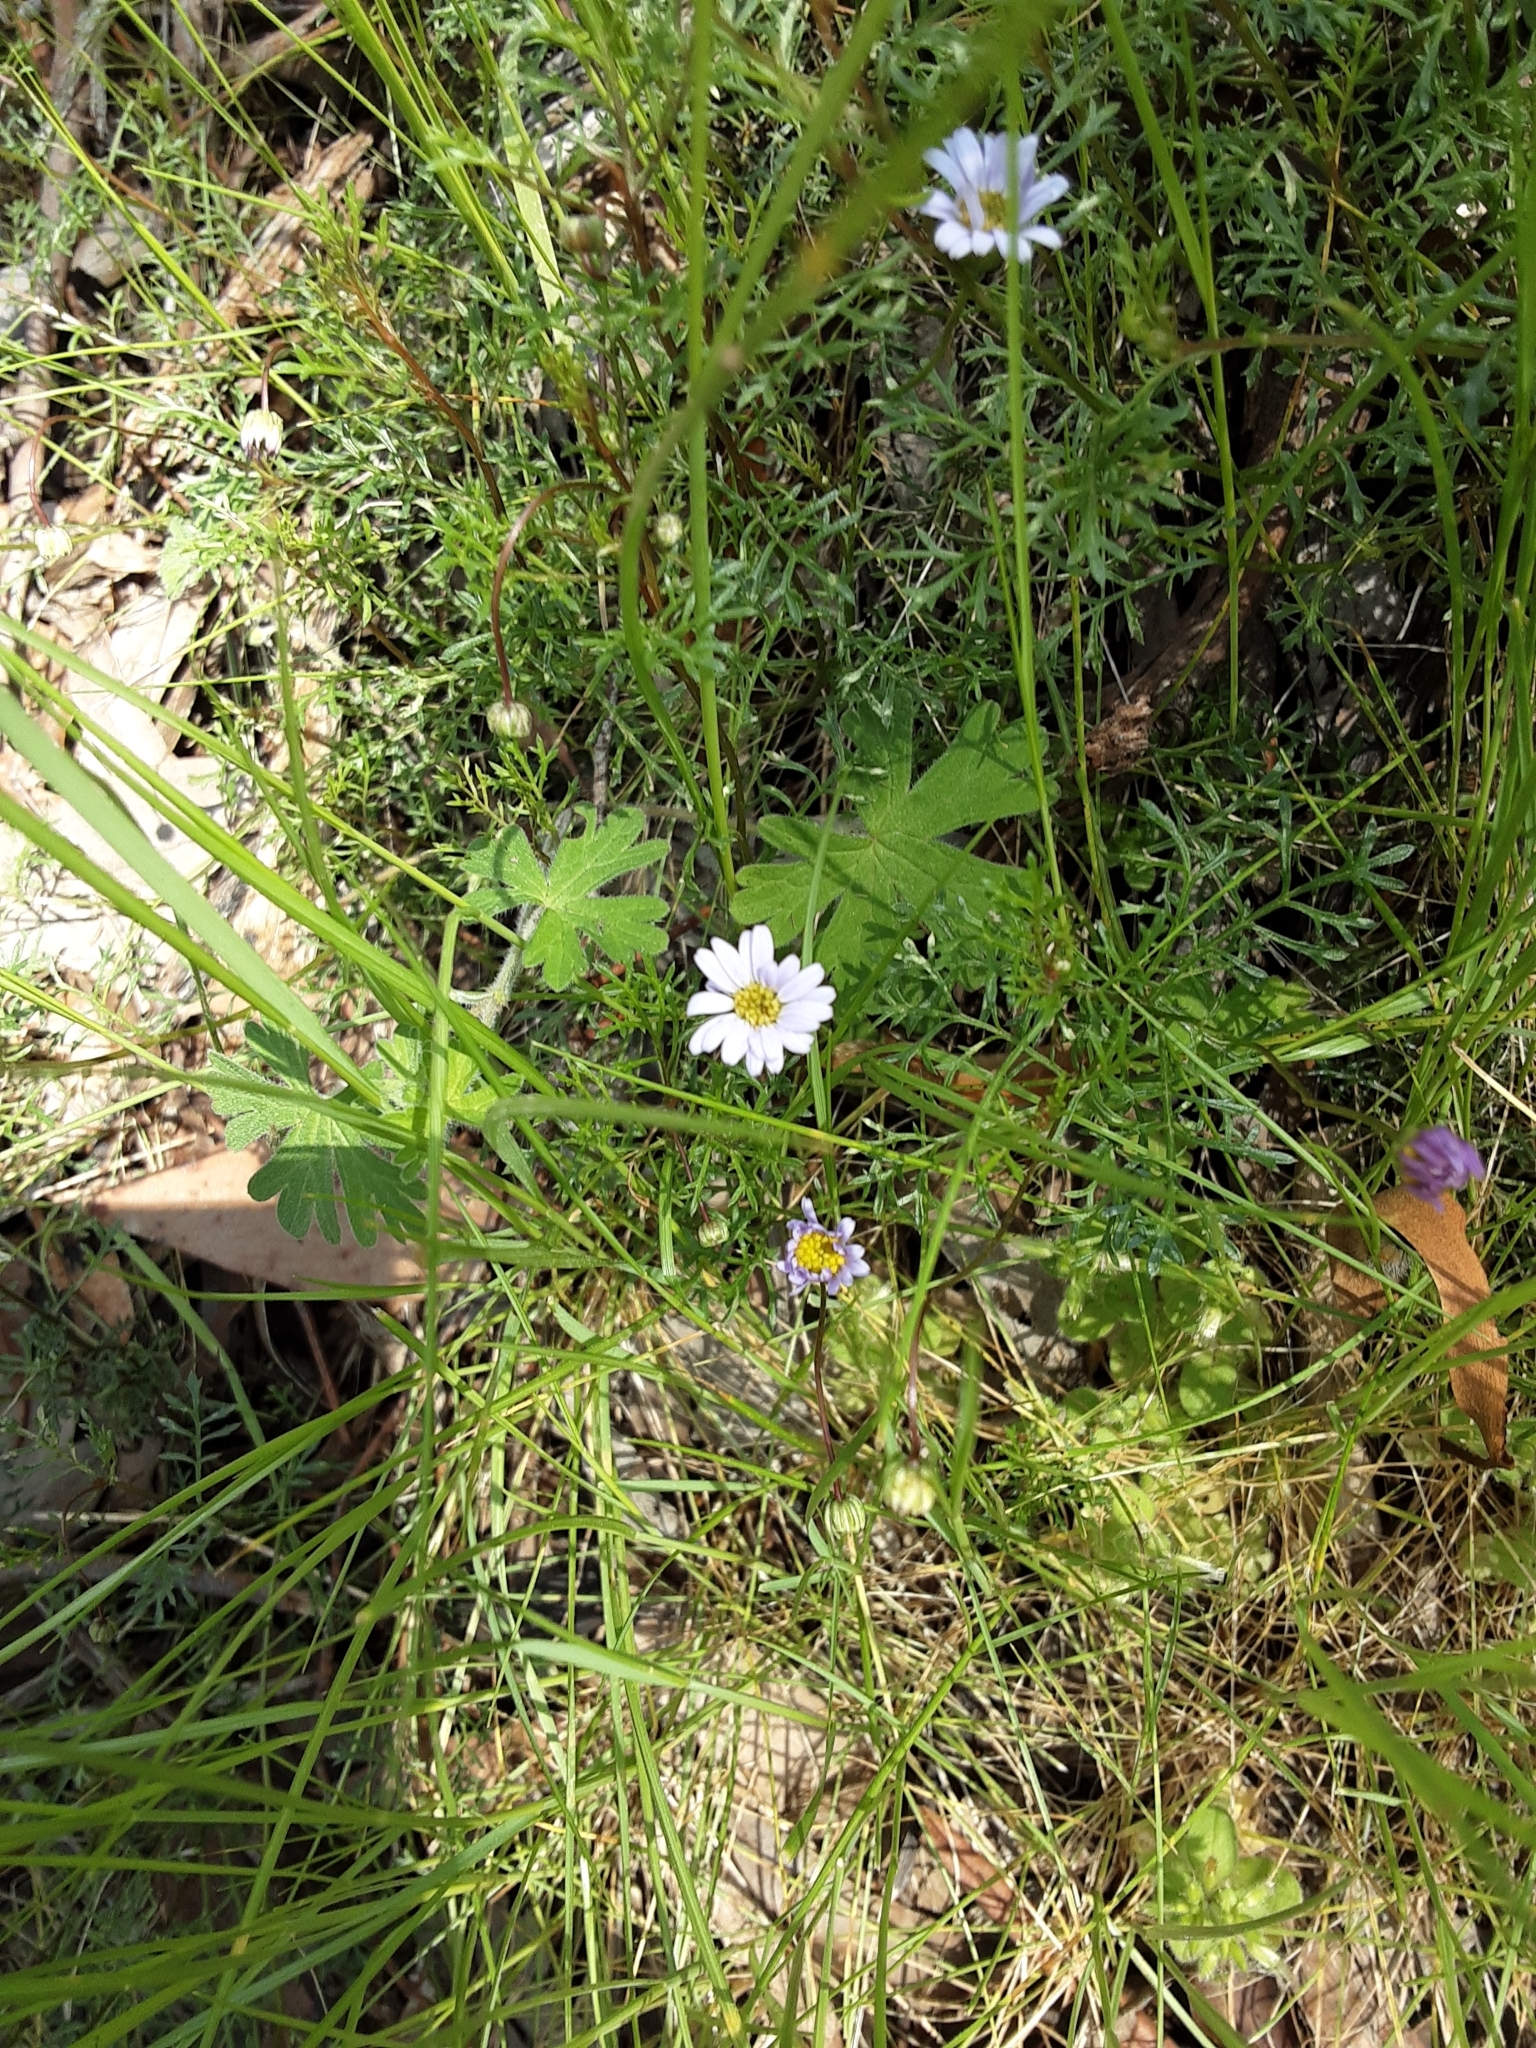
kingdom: Plantae
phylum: Tracheophyta
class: Magnoliopsida
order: Asterales
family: Asteraceae
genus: Brachyscome
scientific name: Brachyscome multifida
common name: Cut-leaf daisy
